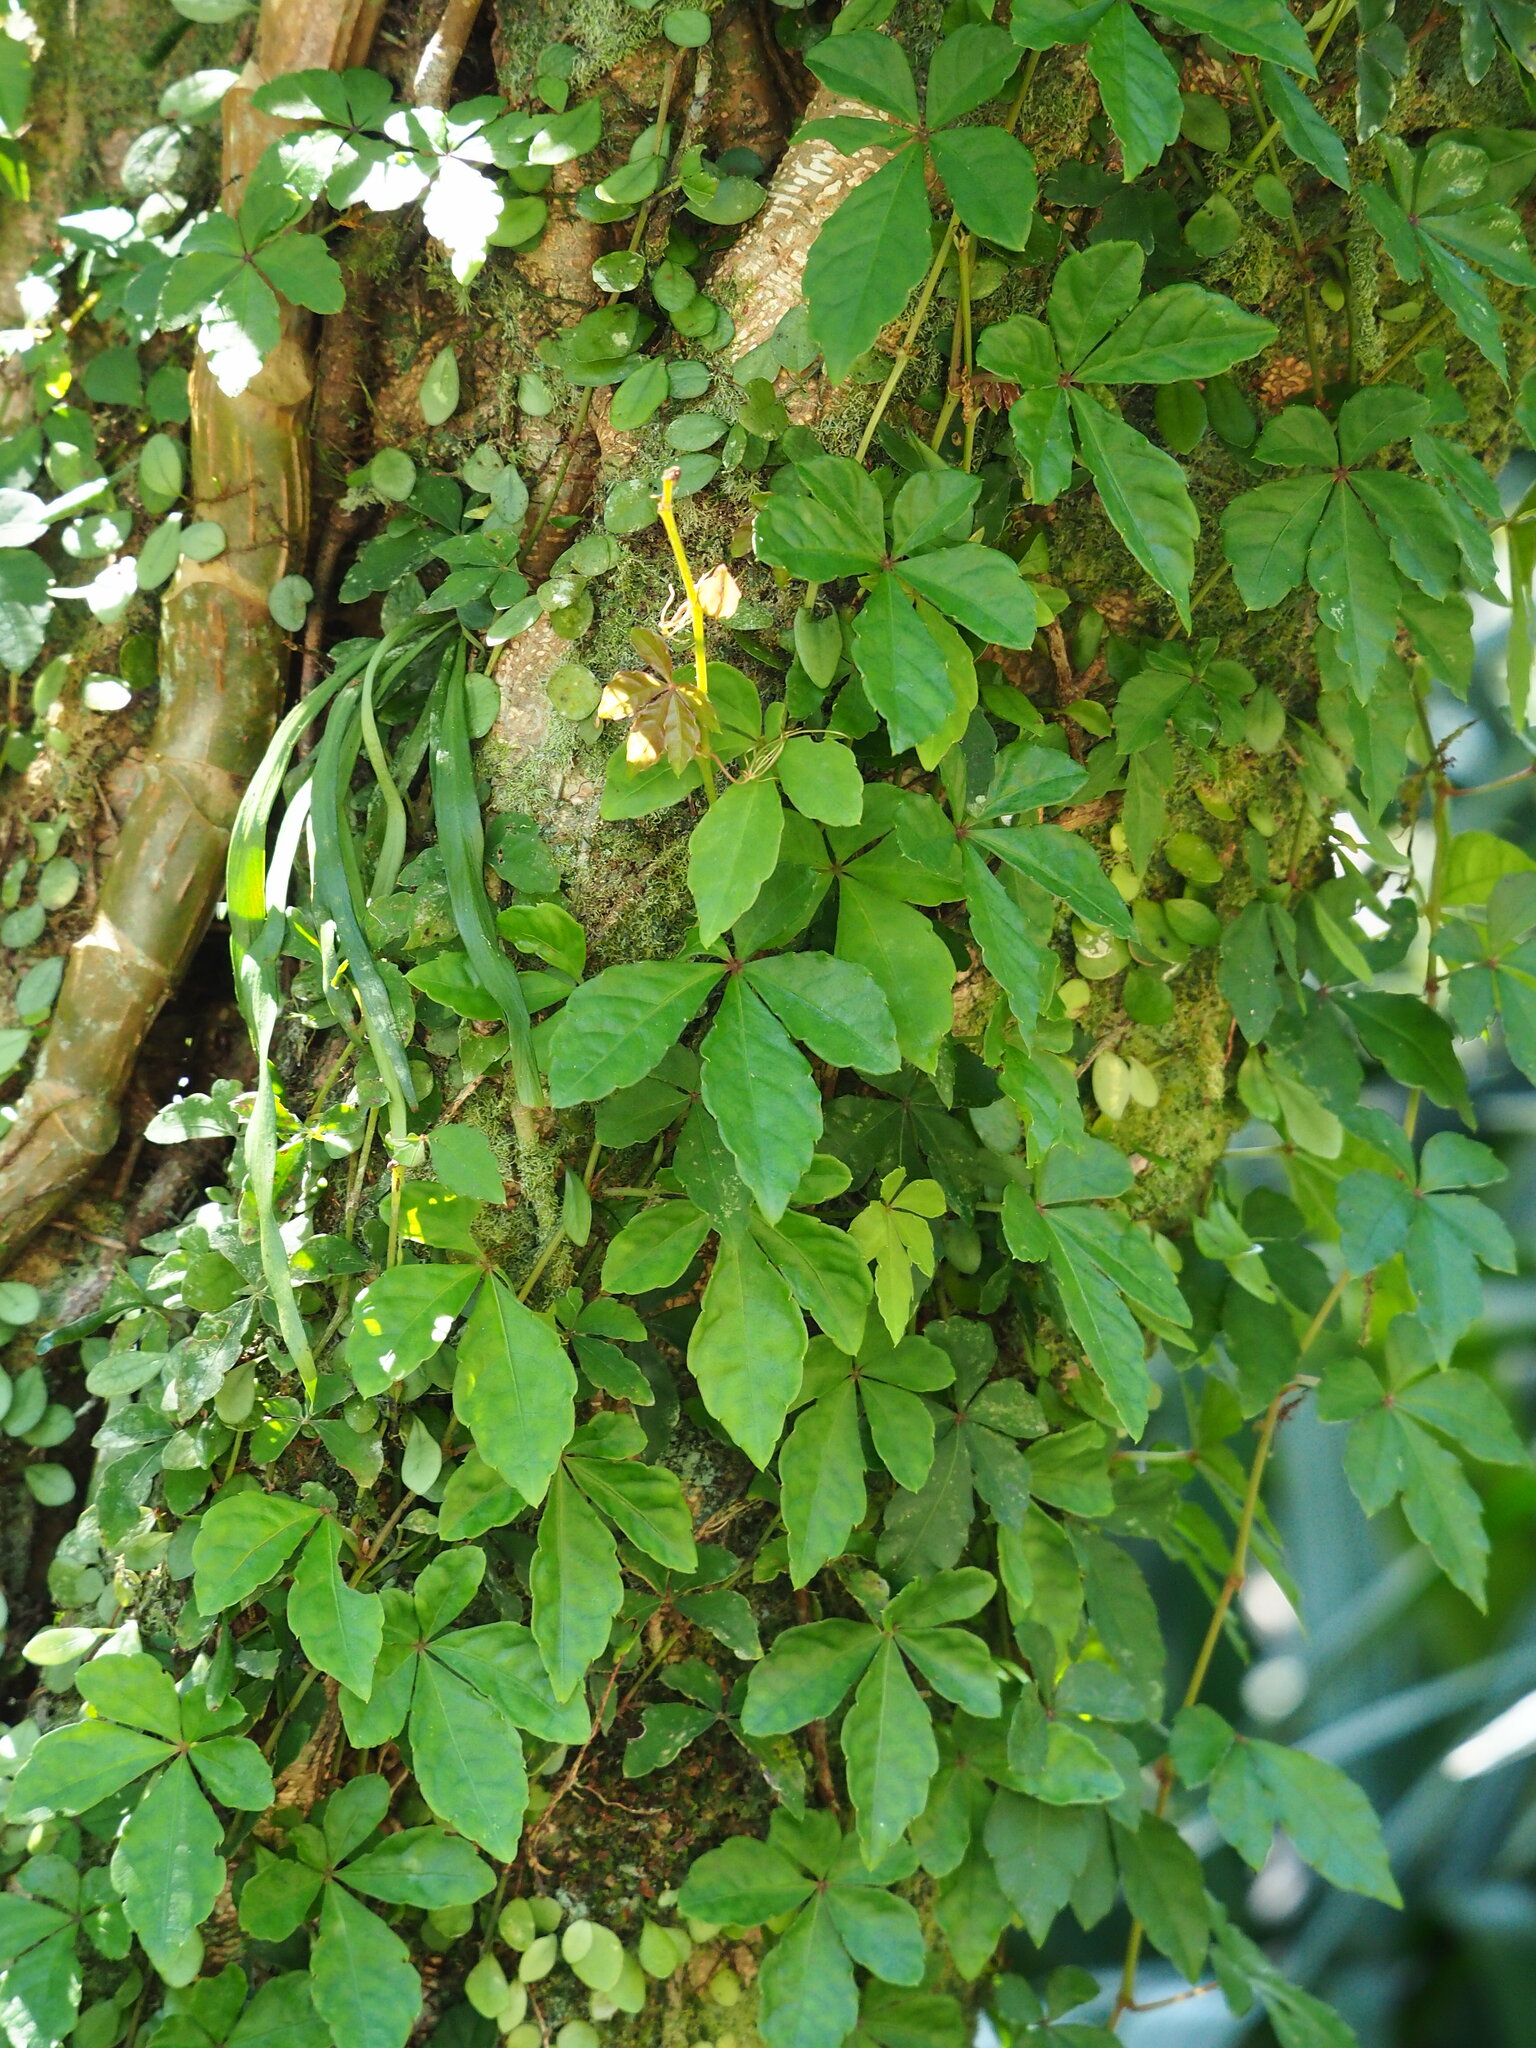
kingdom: Plantae
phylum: Tracheophyta
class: Magnoliopsida
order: Vitales
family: Vitaceae
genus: Tetrastigma
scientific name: Tetrastigma obtectum
